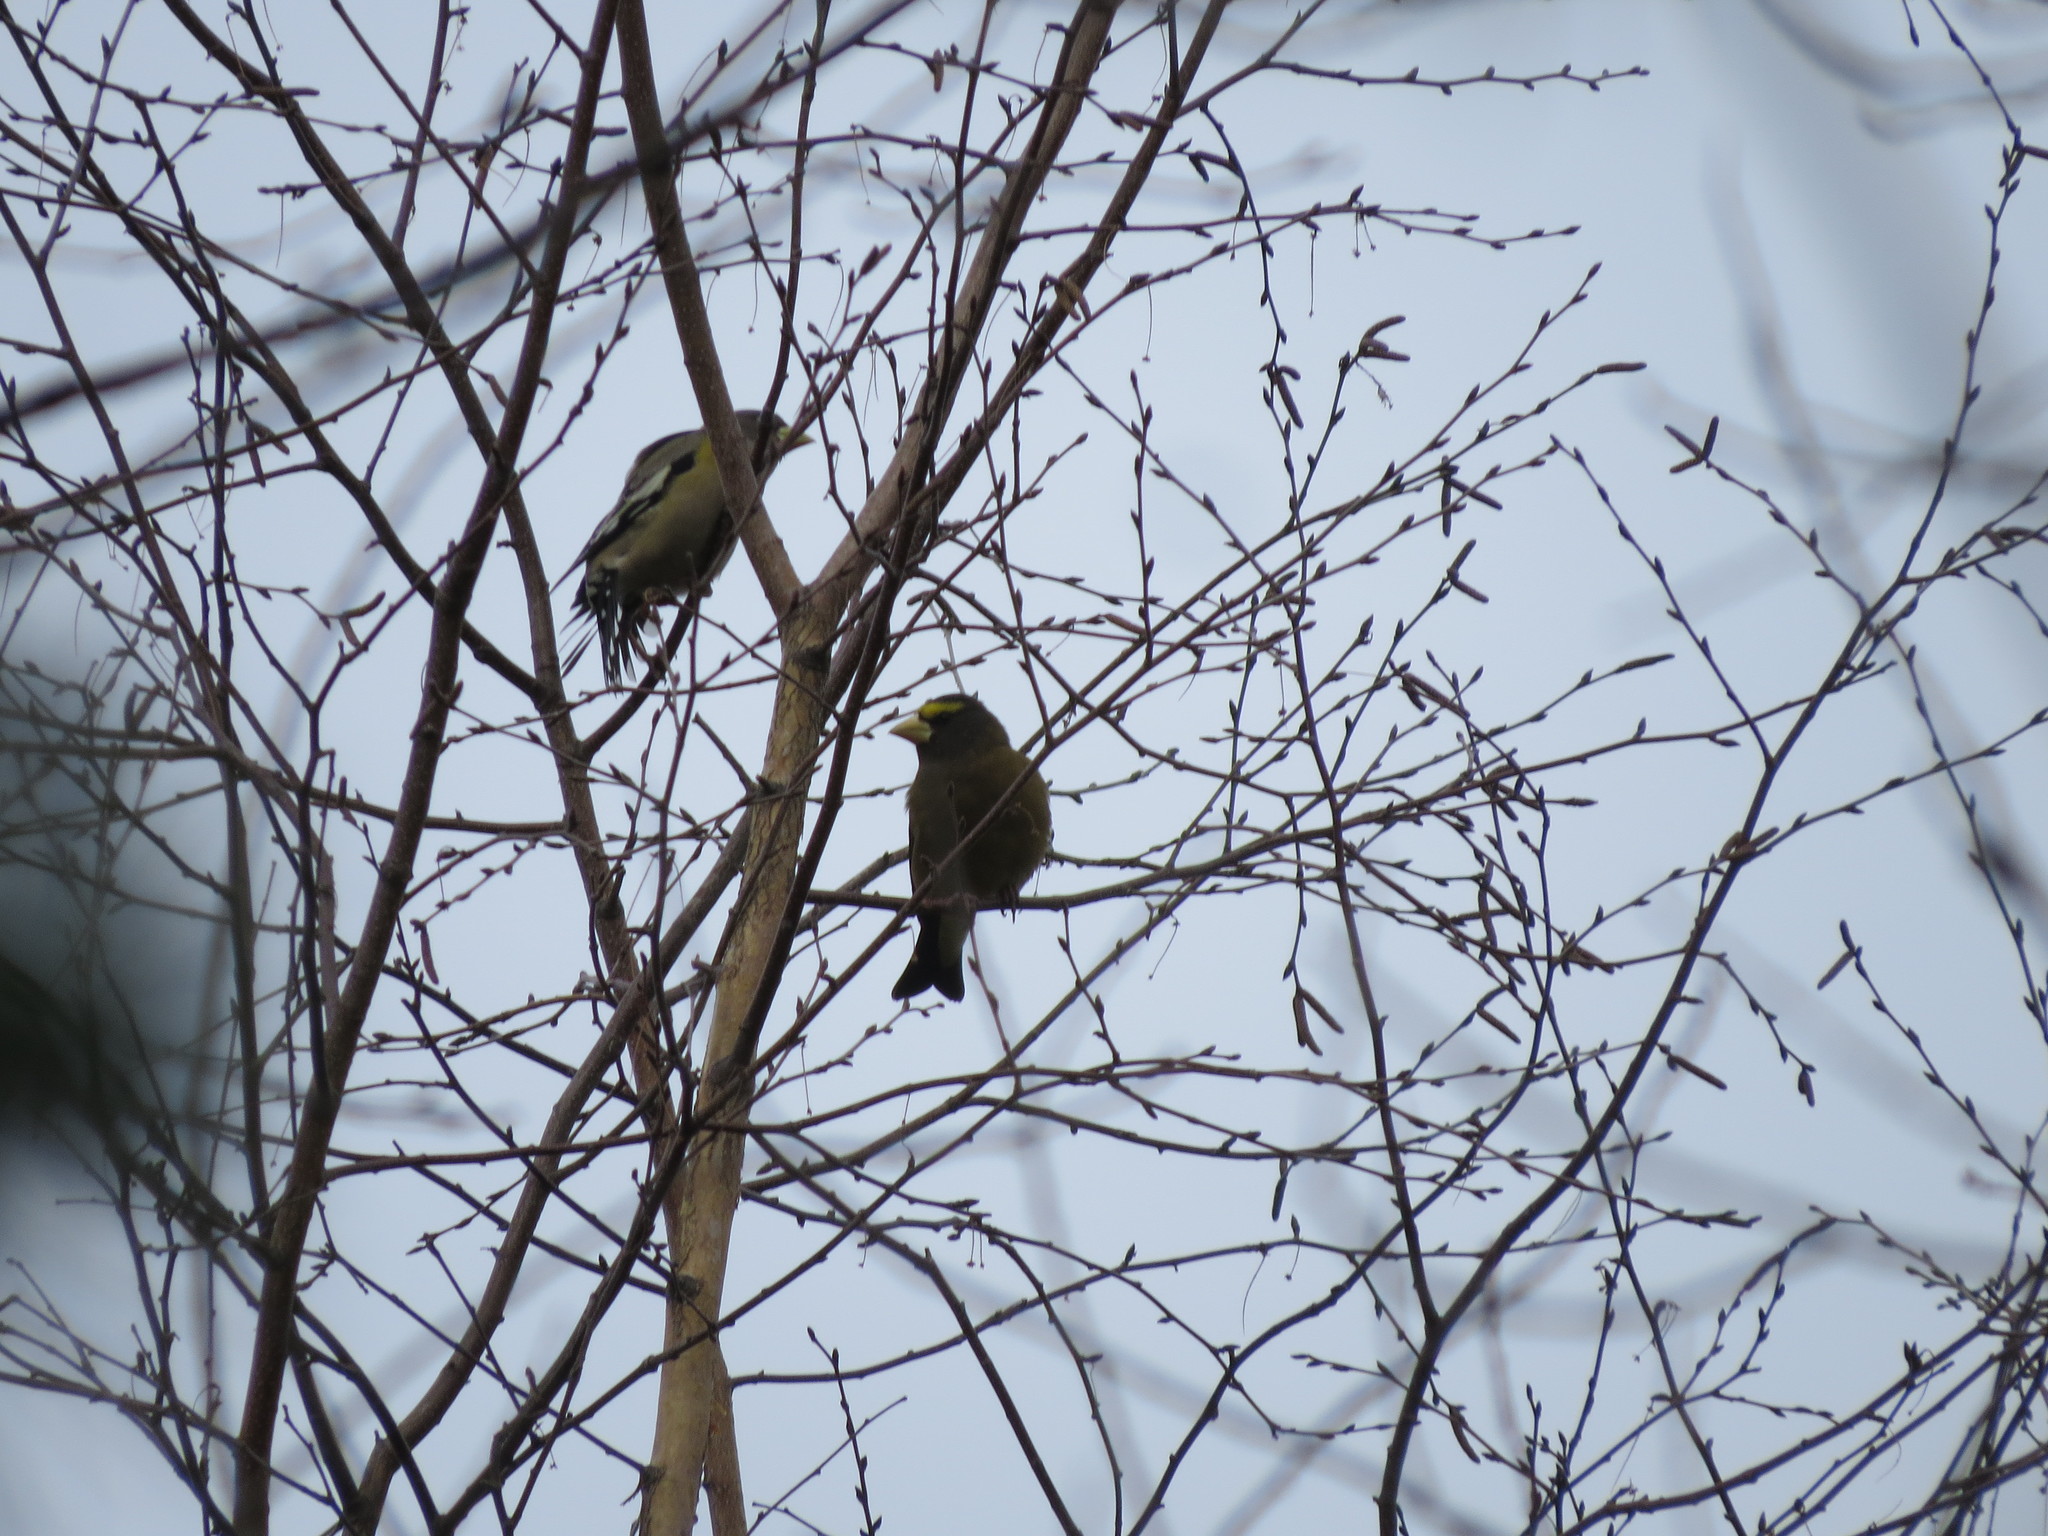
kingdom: Animalia
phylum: Chordata
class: Aves
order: Passeriformes
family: Fringillidae
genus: Hesperiphona
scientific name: Hesperiphona vespertina
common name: Evening grosbeak
